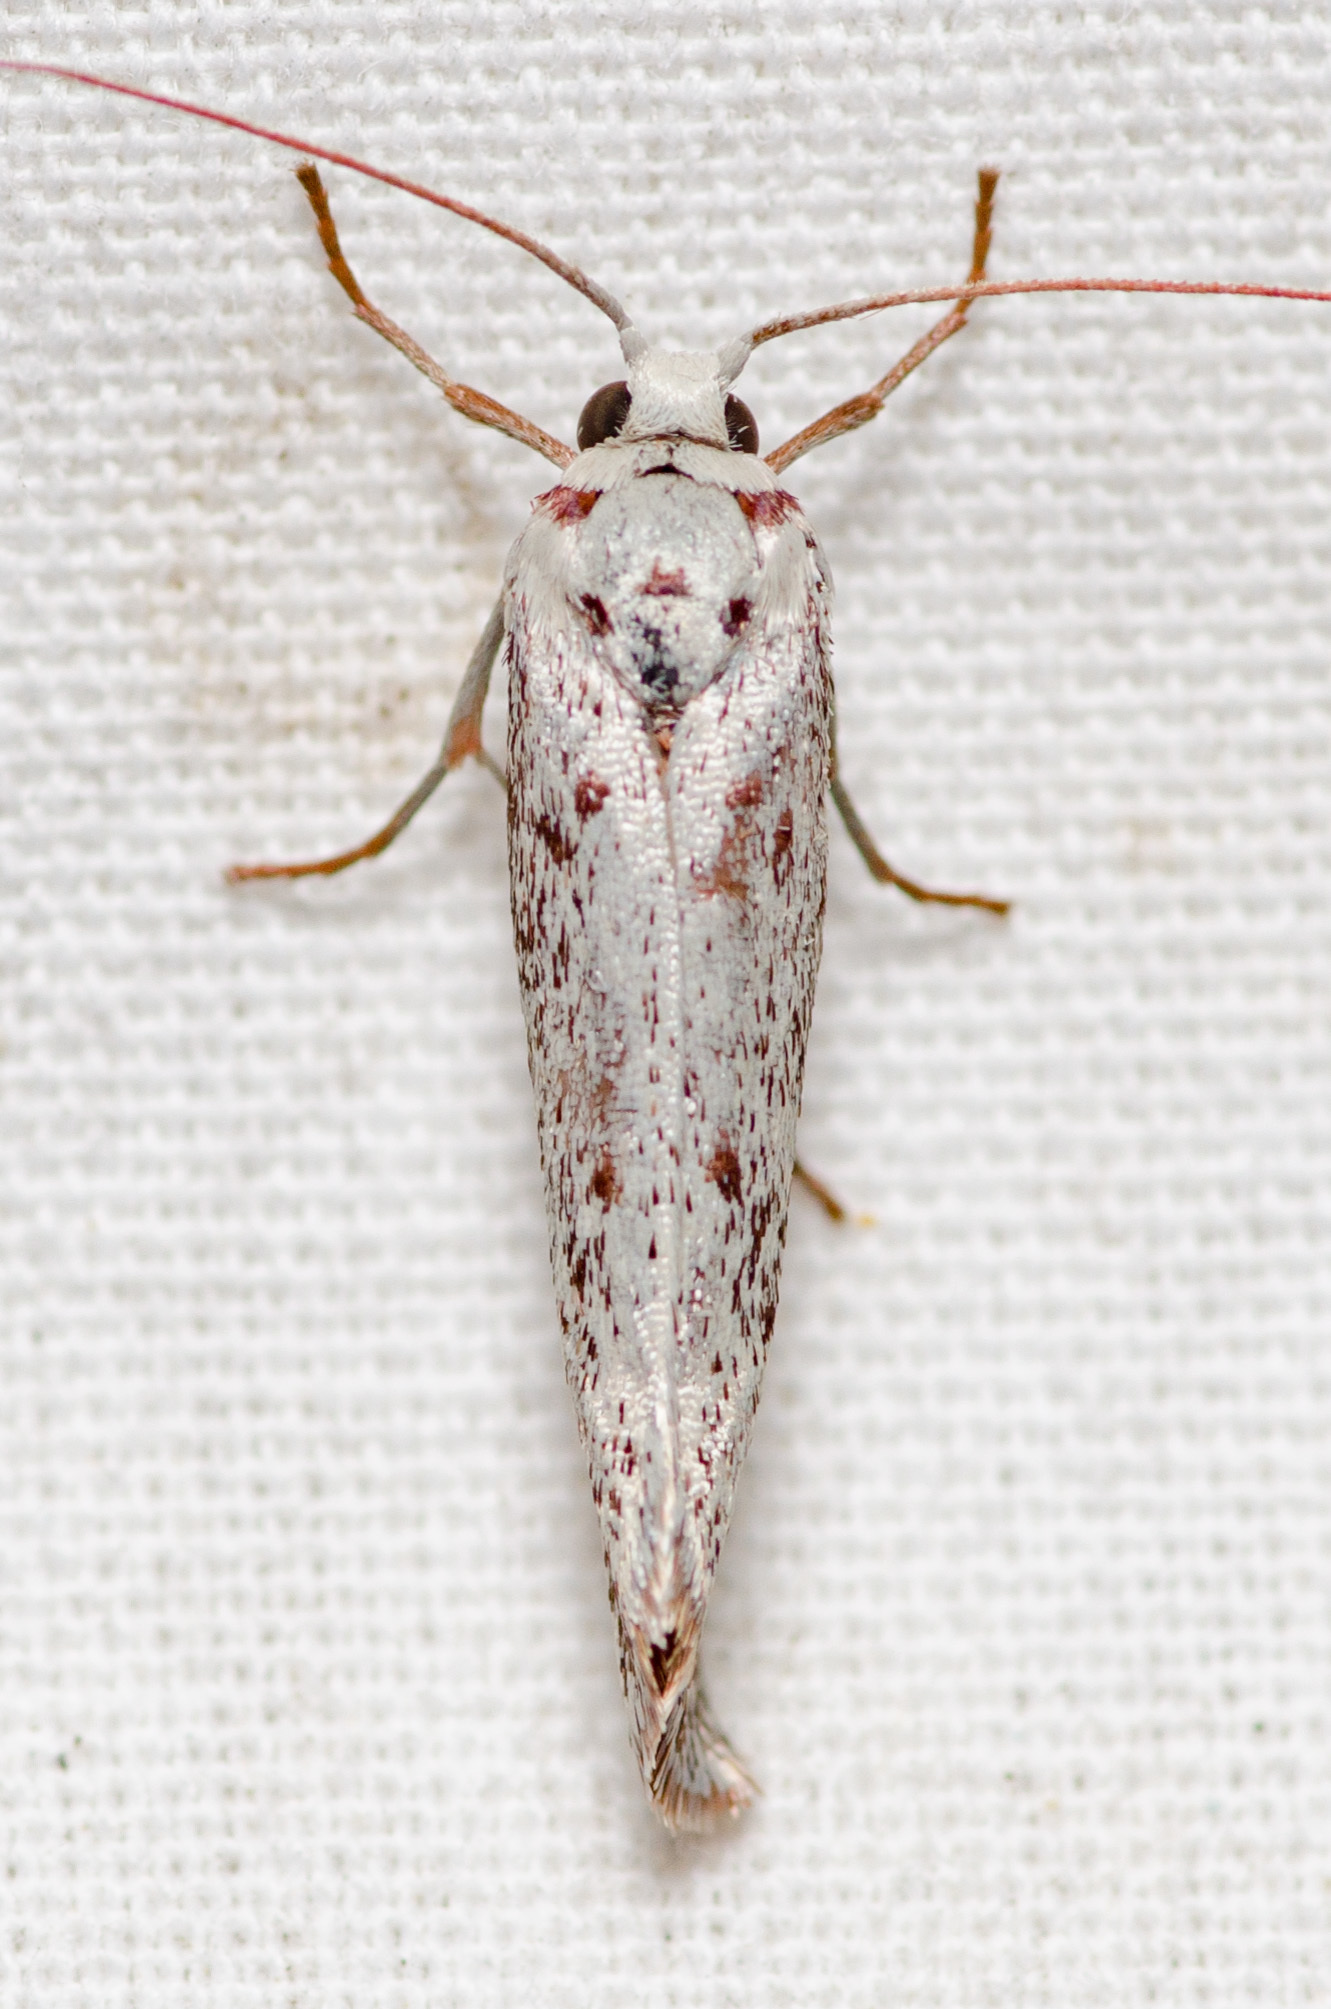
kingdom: Animalia
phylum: Arthropoda
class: Insecta
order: Lepidoptera
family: Lacturidae
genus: Lactura
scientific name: Lactura
